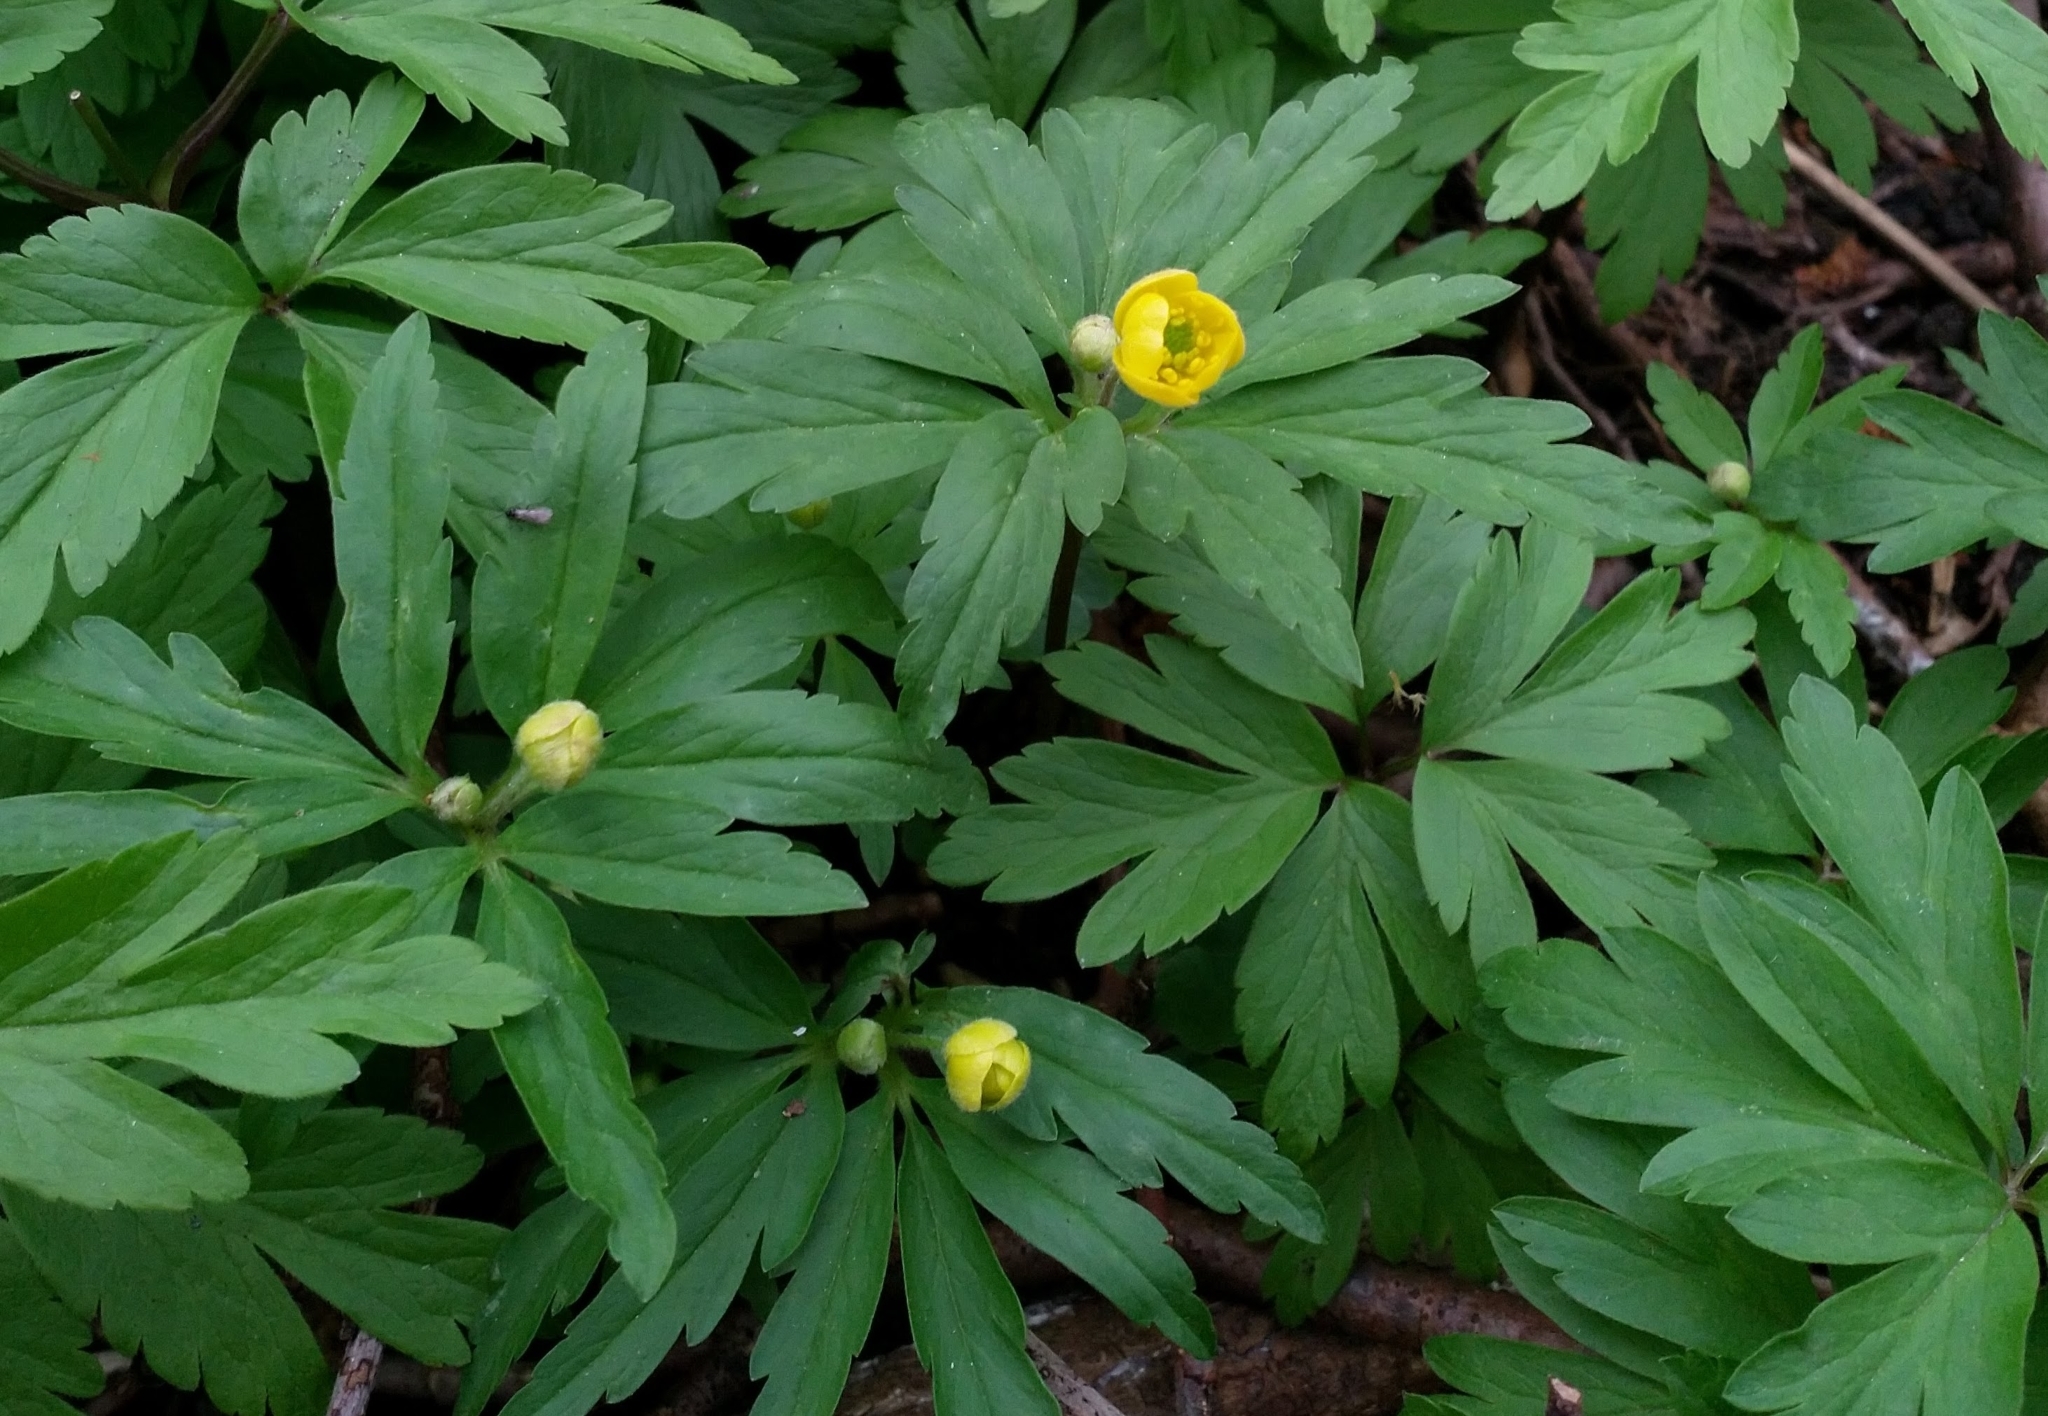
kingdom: Plantae
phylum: Tracheophyta
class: Magnoliopsida
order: Ranunculales
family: Ranunculaceae
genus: Anemone
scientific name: Anemone ranunculoides
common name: Yellow anemone
